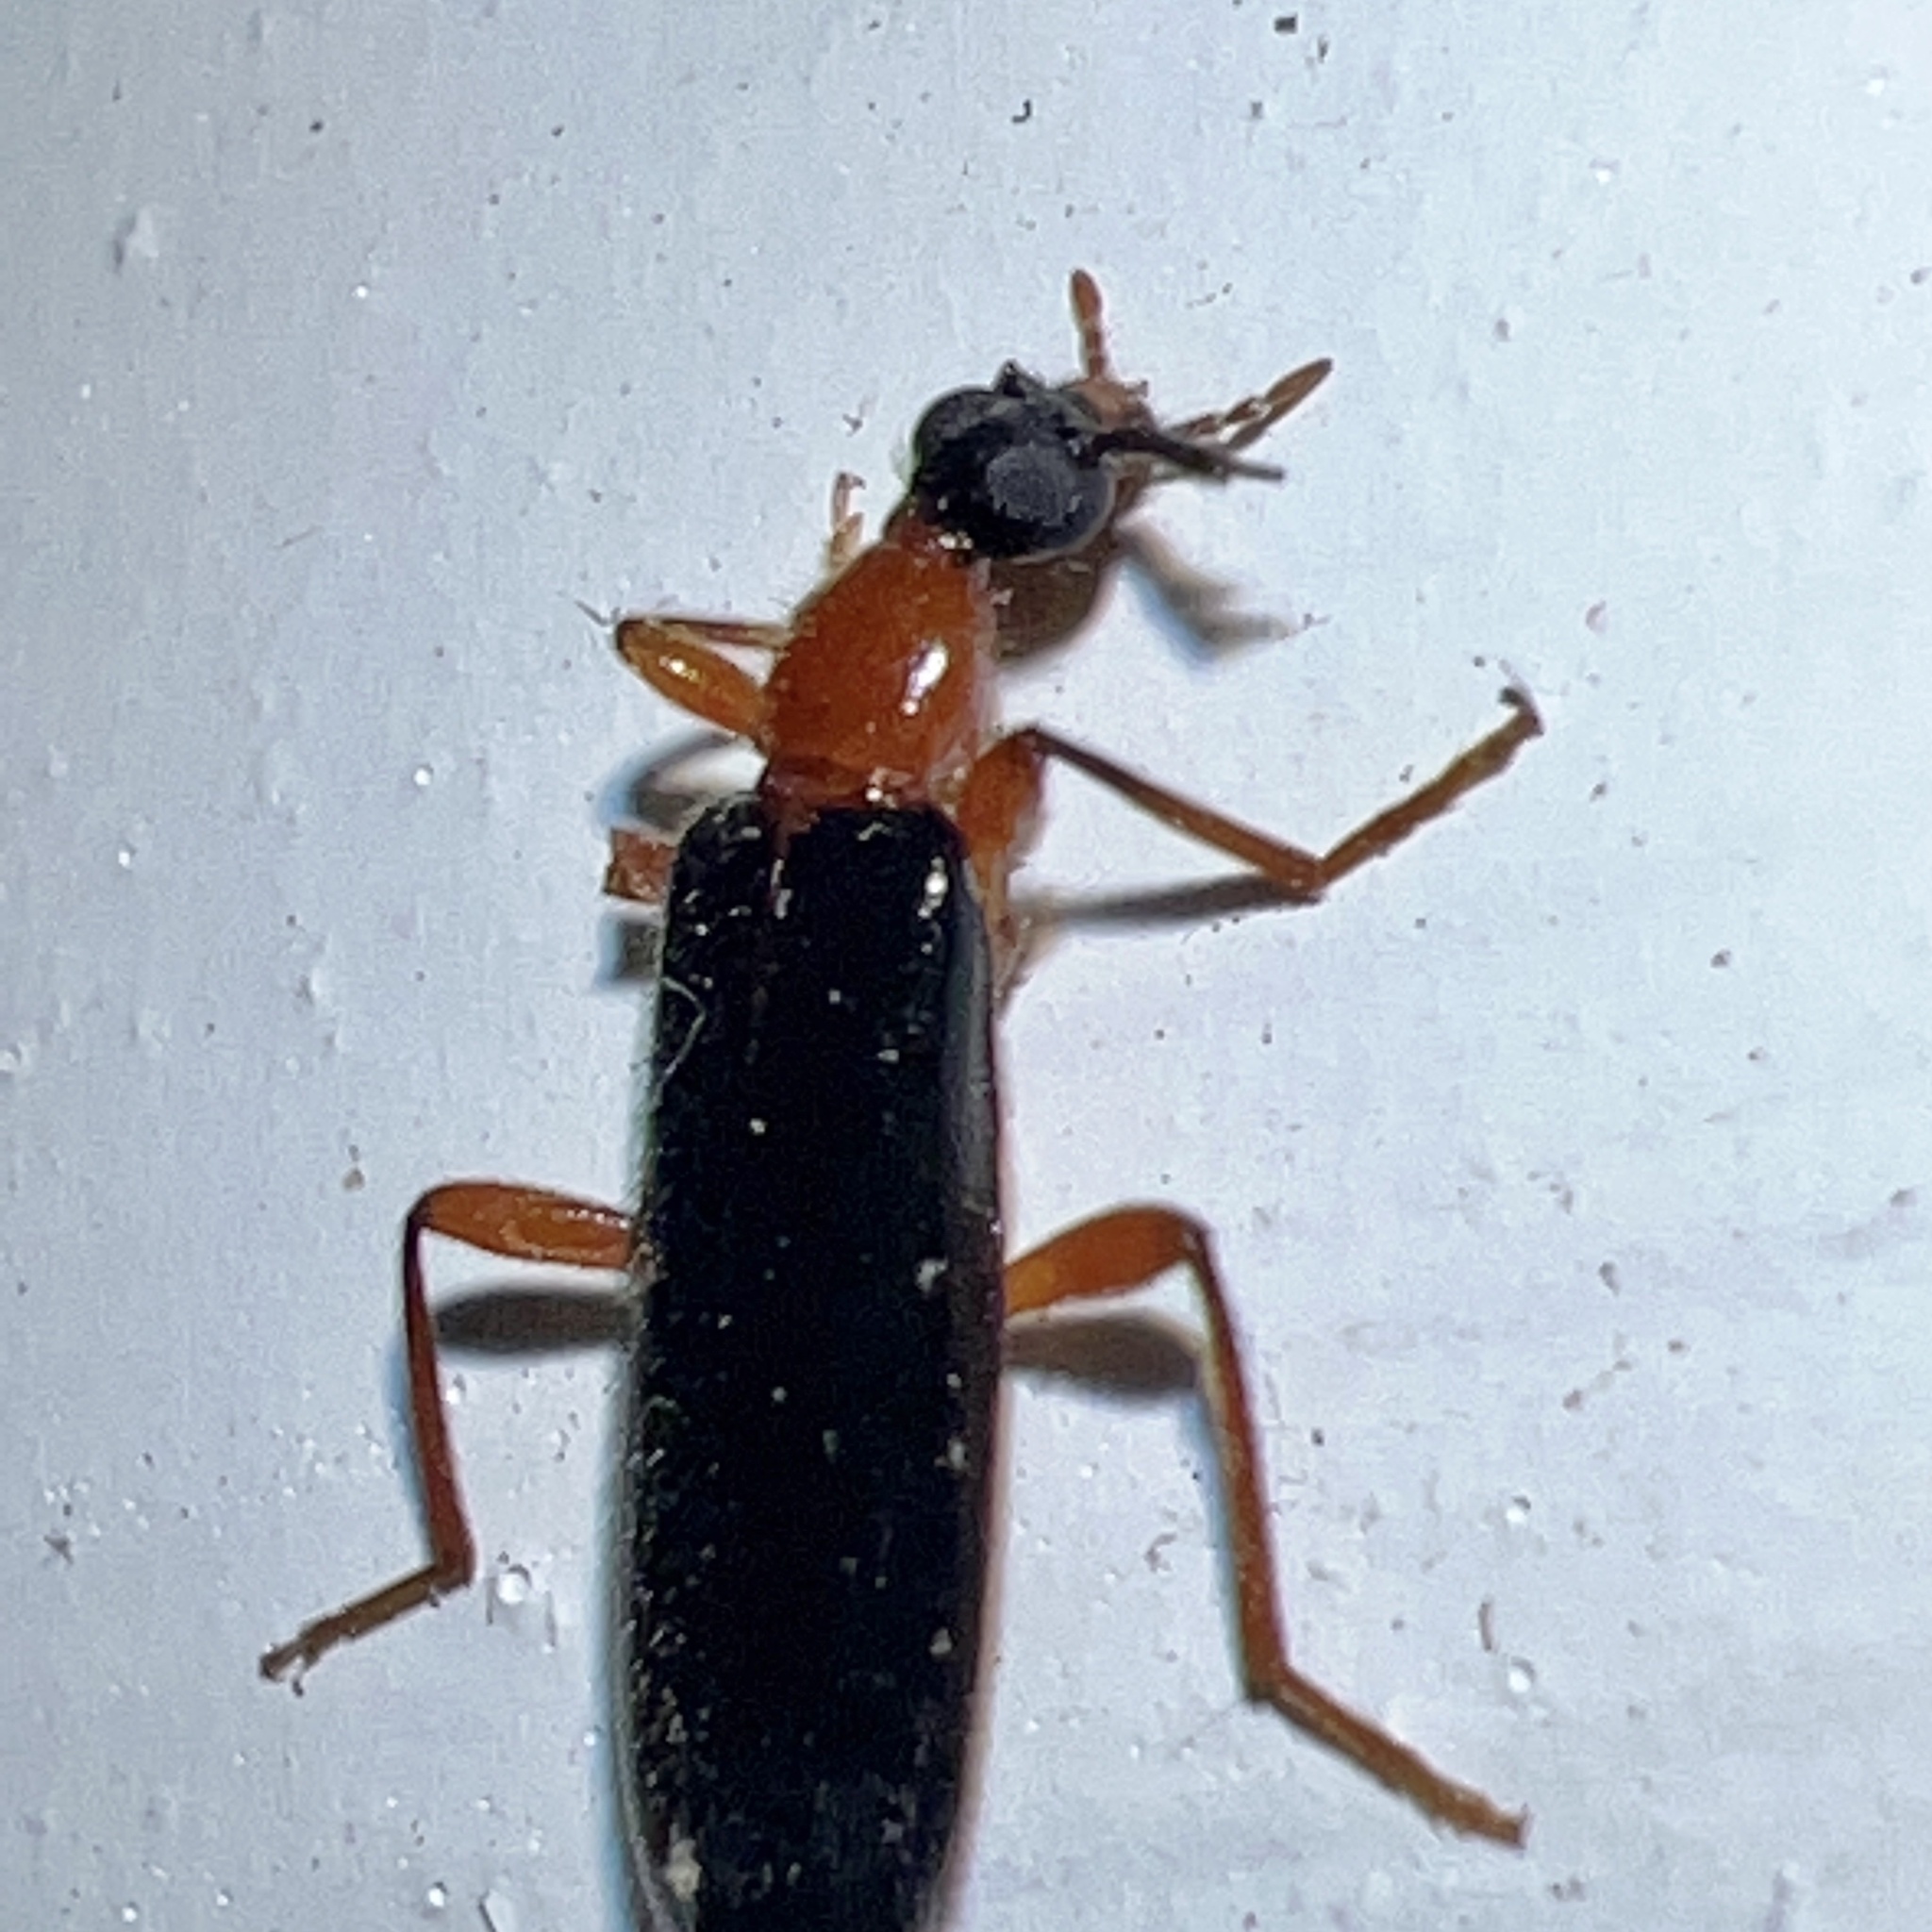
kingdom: Animalia
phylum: Arthropoda
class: Insecta
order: Coleoptera
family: Pyrochroidae
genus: Dendroides
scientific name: Dendroides canadensis
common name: Canada fire-colored beetle
